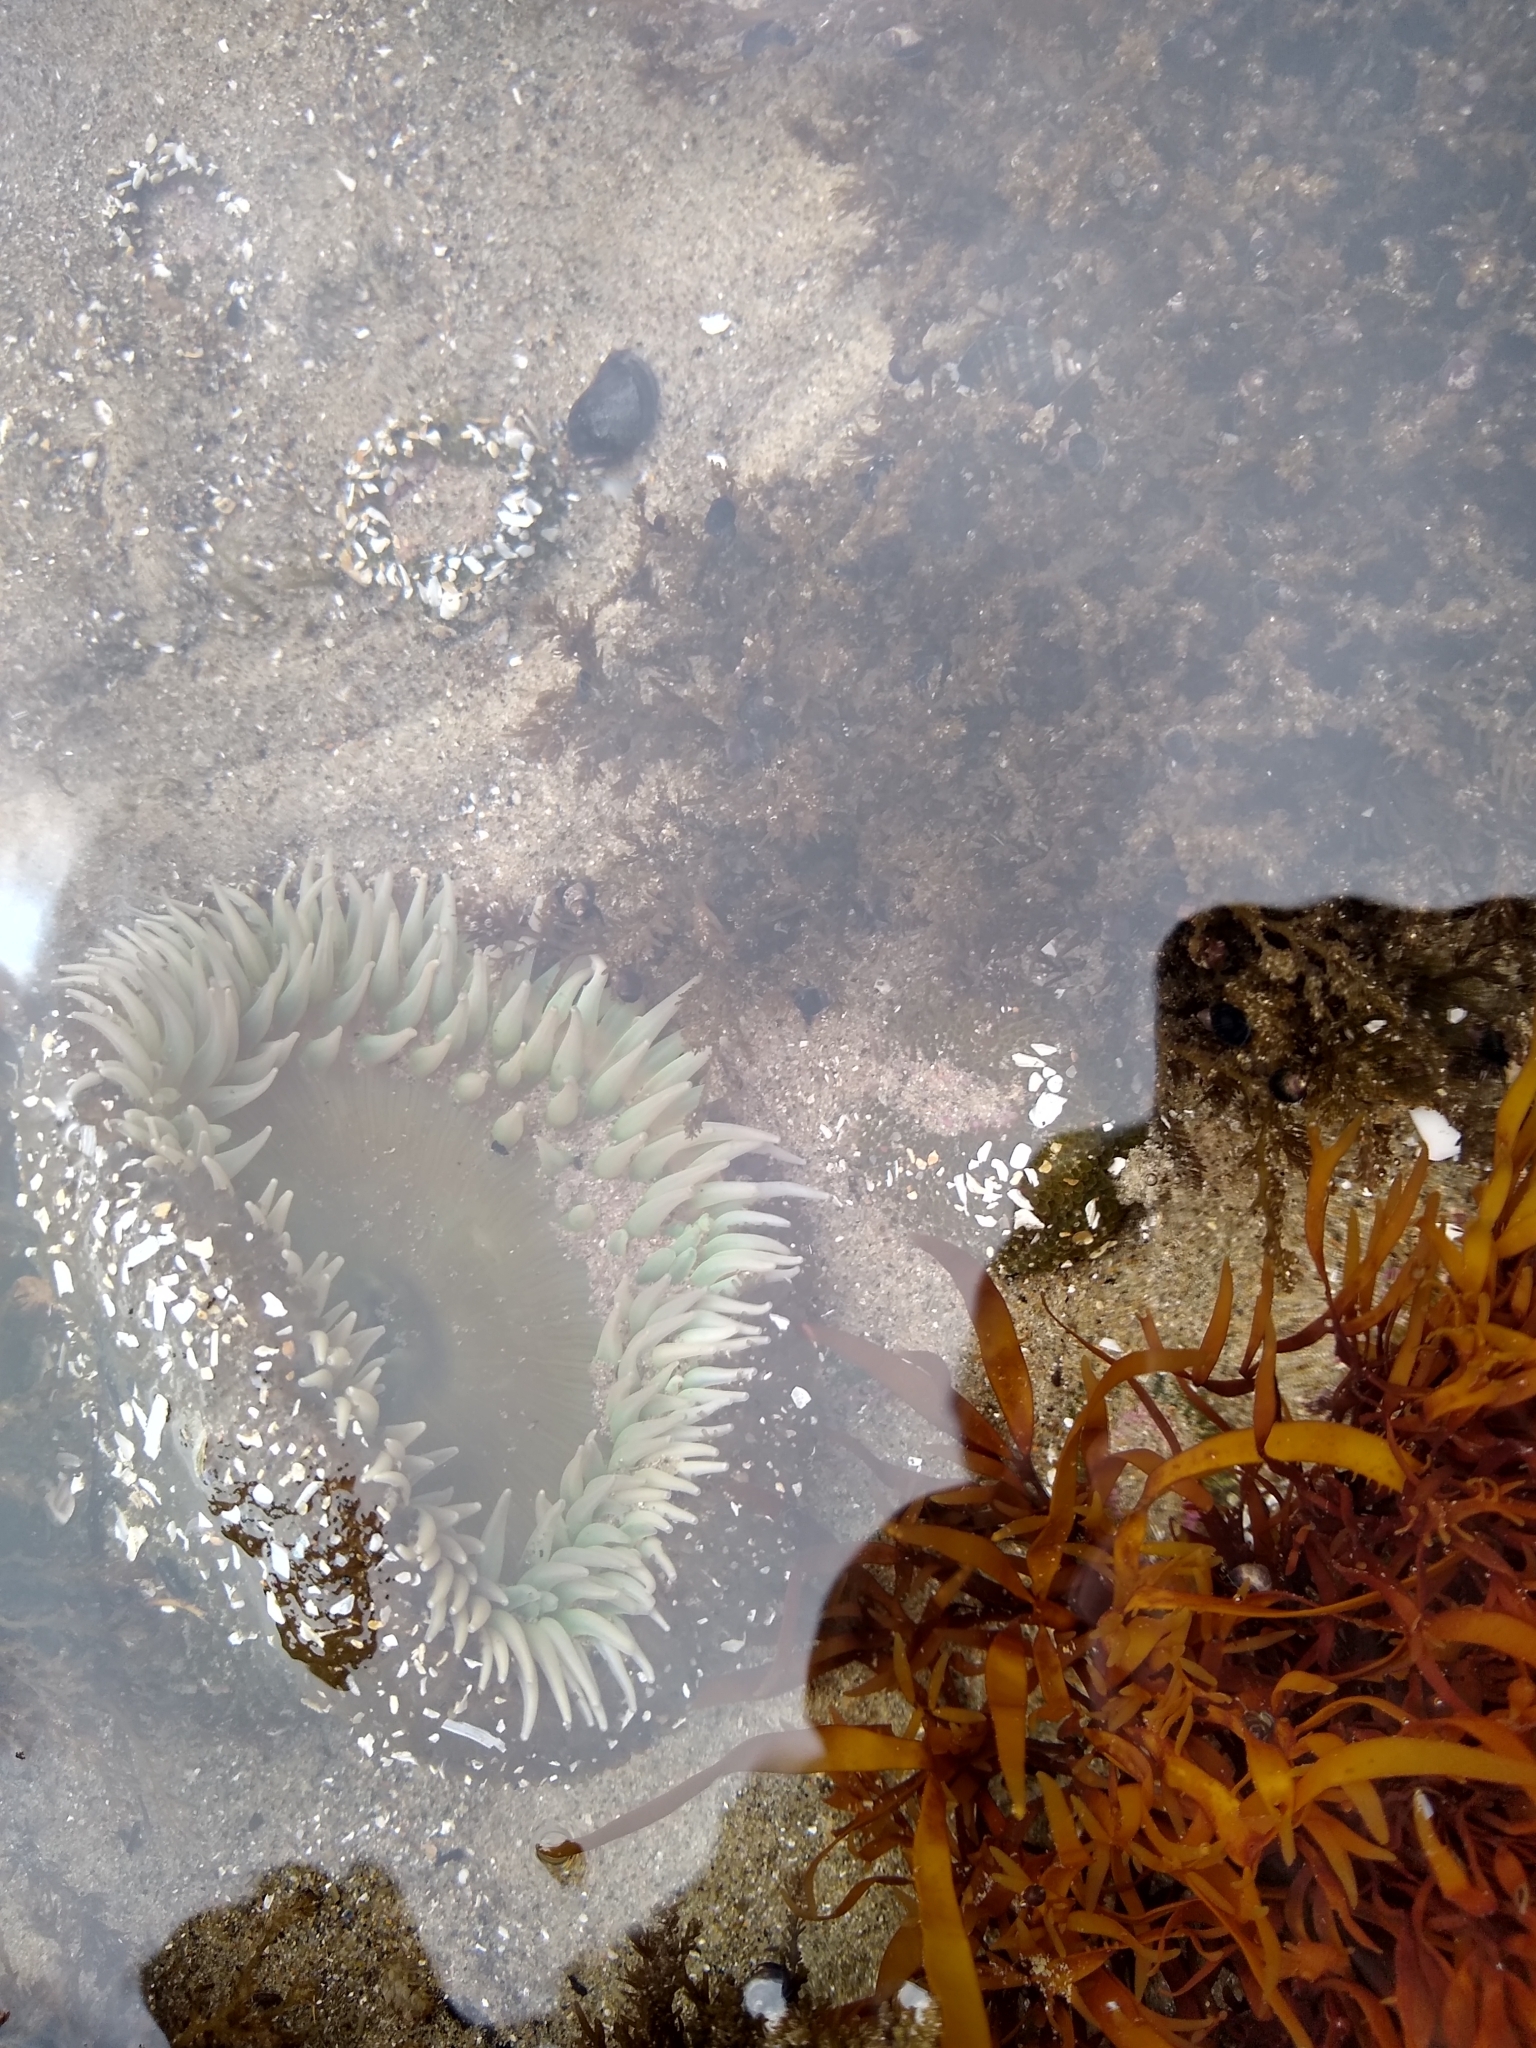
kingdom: Animalia
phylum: Cnidaria
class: Anthozoa
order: Actiniaria
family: Actiniidae
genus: Anthopleura
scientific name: Anthopleura xanthogrammica
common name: Giant green anemone
